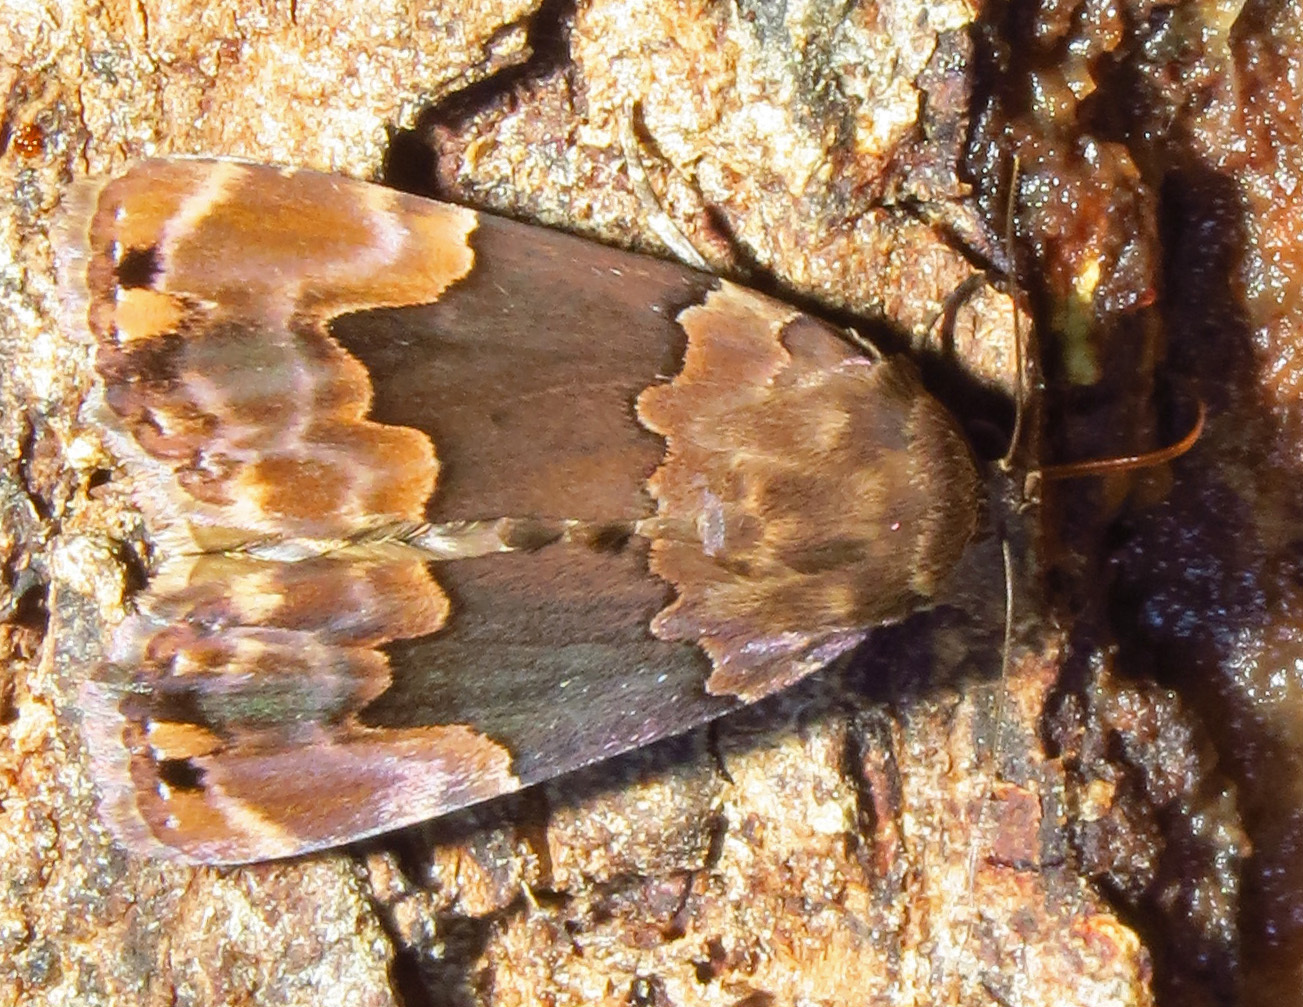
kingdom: Animalia
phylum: Arthropoda
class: Insecta
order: Lepidoptera
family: Erebidae
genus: Dinumma
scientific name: Dinumma deponens
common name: Purplish moth
